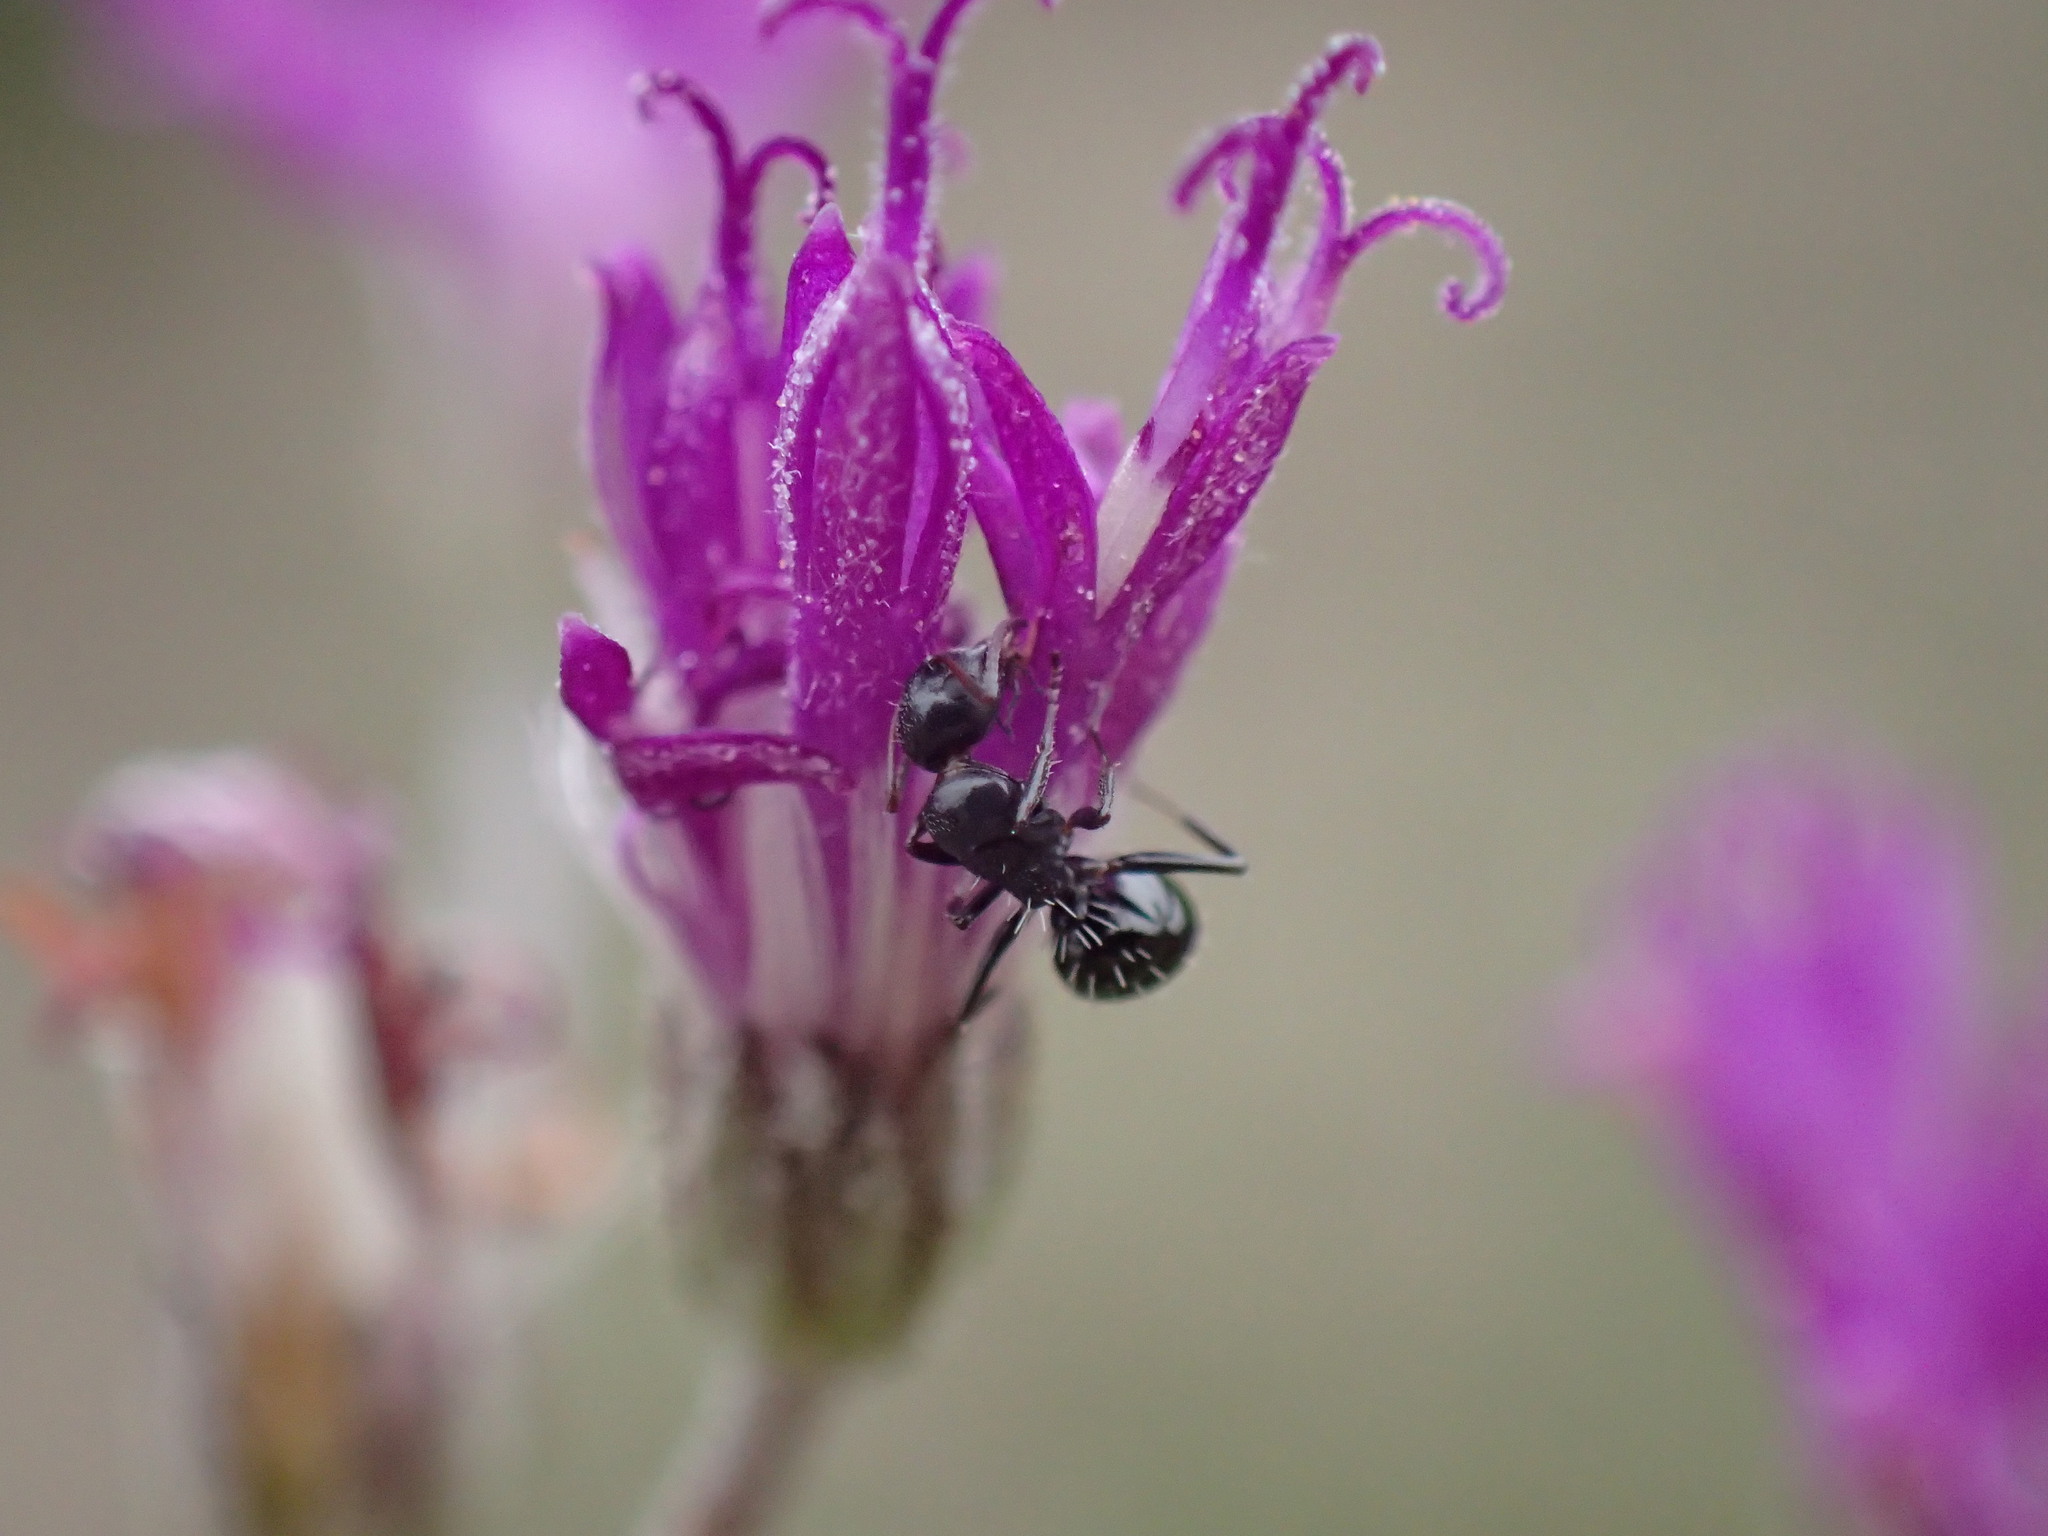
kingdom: Animalia
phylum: Arthropoda
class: Insecta
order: Hymenoptera
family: Formicidae
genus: Camponotus
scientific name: Camponotus niveosetosus
